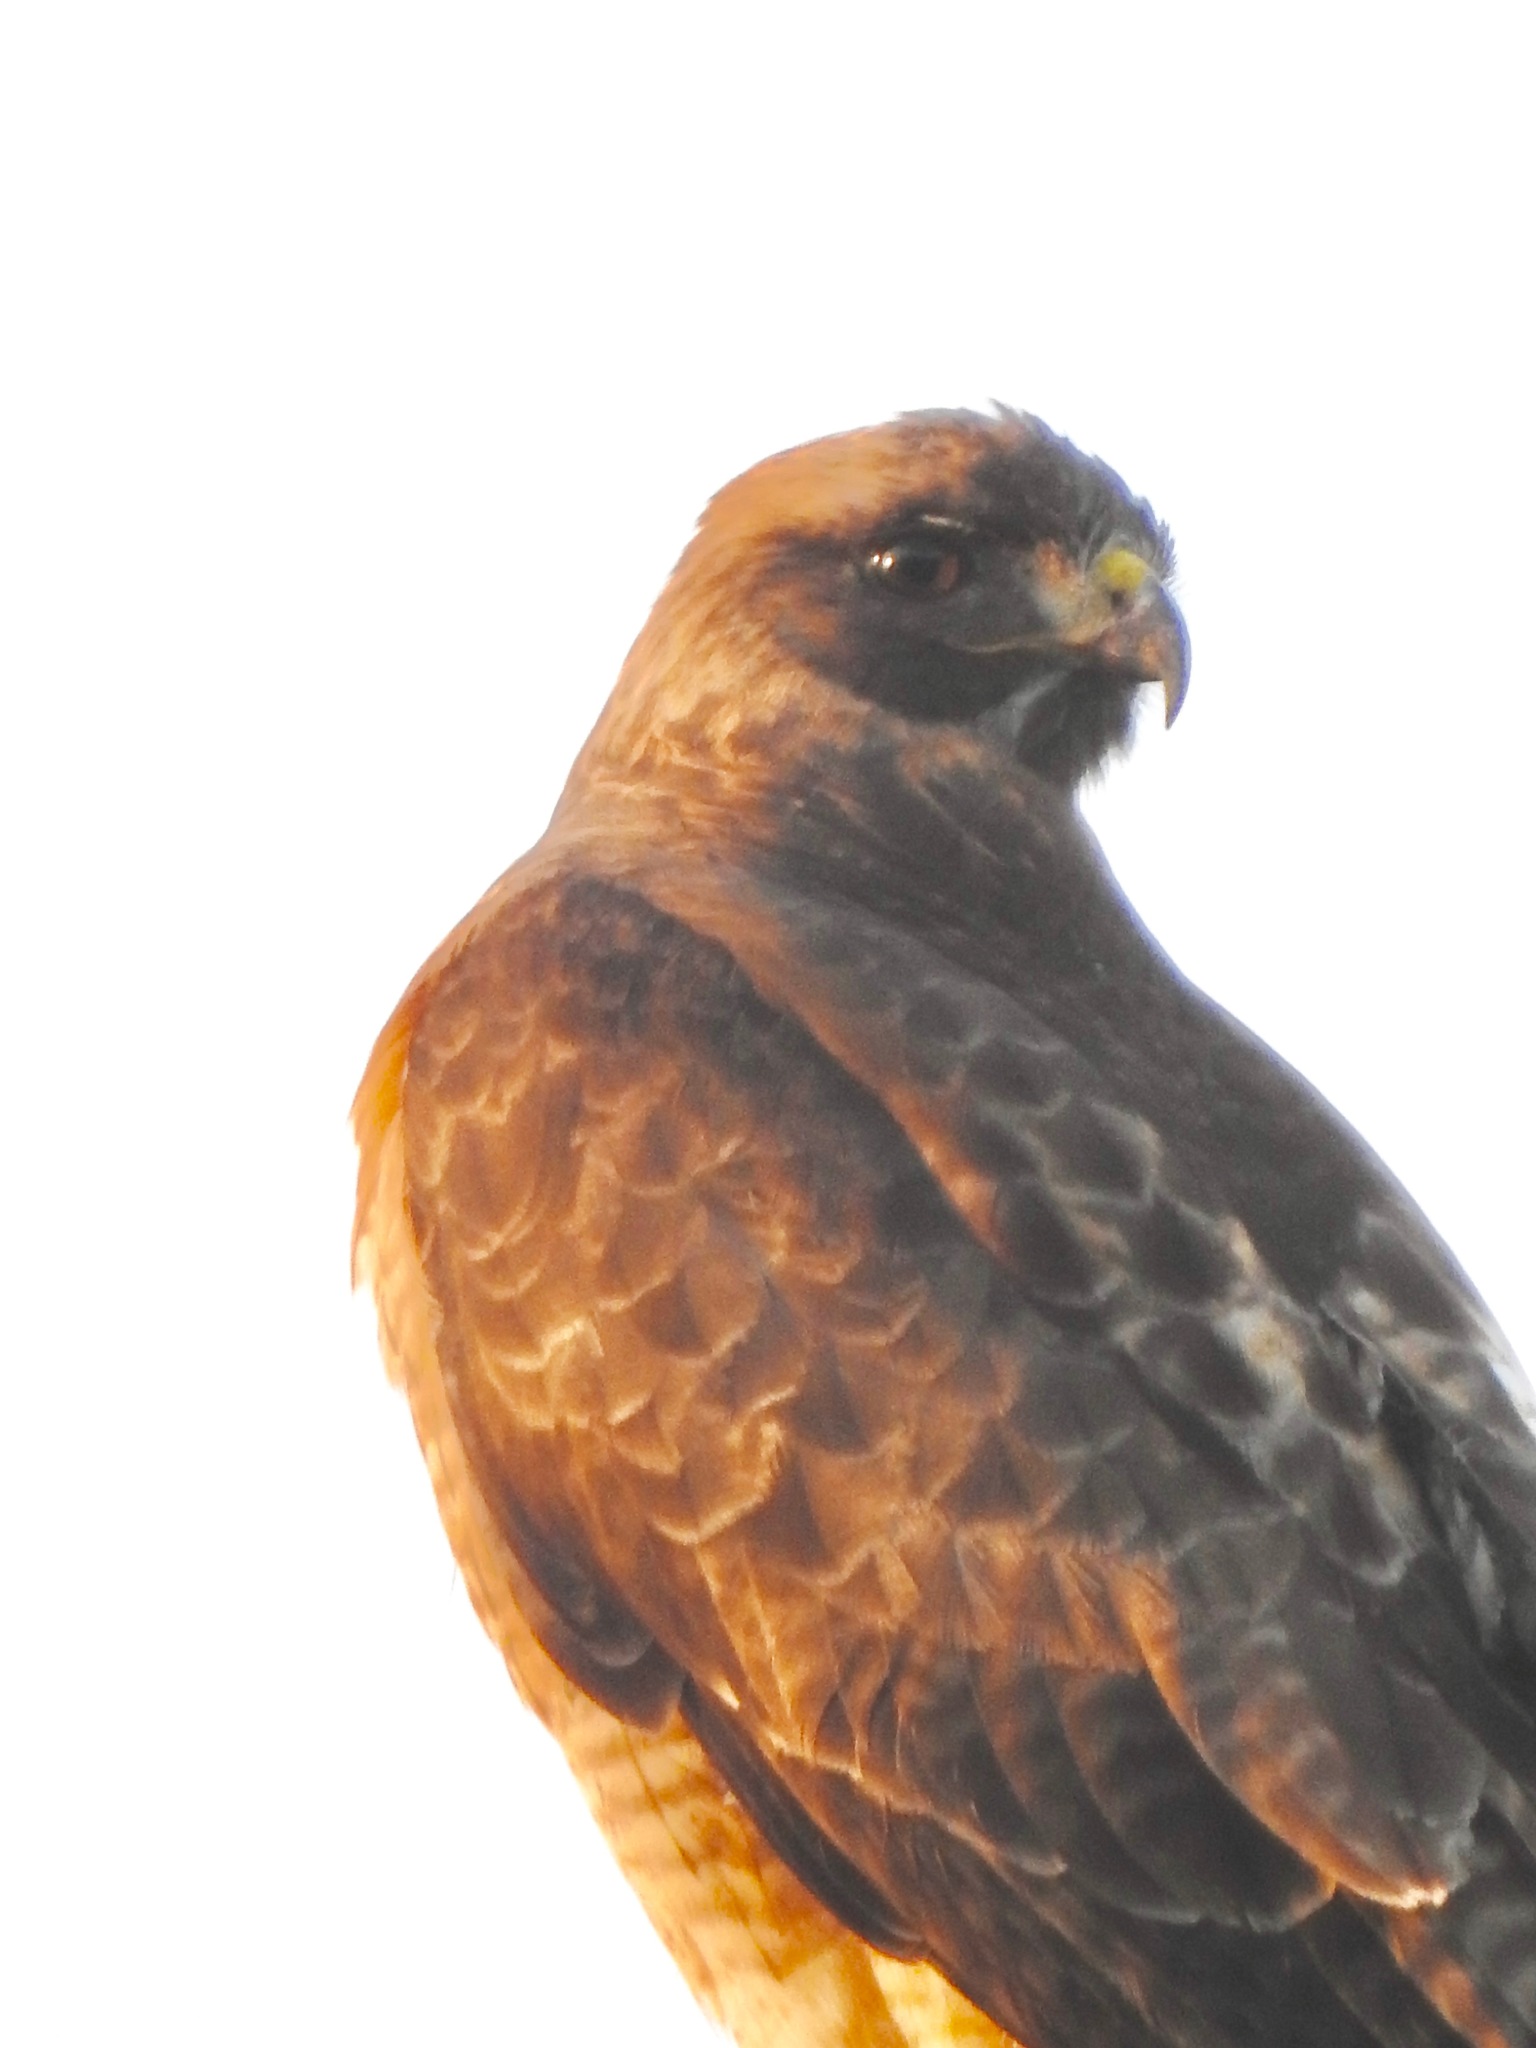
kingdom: Animalia
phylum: Chordata
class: Aves
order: Accipitriformes
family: Accipitridae
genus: Buteo
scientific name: Buteo jamaicensis
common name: Red-tailed hawk
